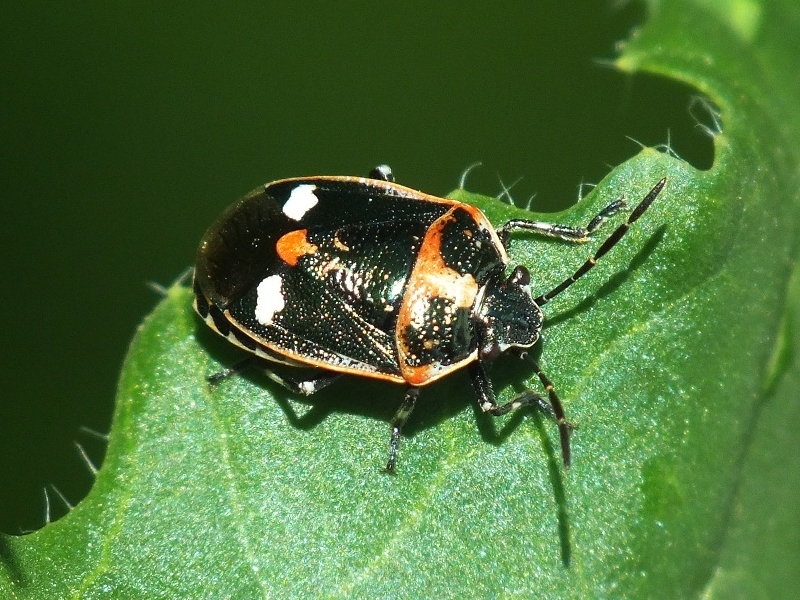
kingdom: Animalia
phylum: Arthropoda
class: Insecta
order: Hemiptera
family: Pentatomidae
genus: Eurydema
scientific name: Eurydema oleracea
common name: Cabbage bug
